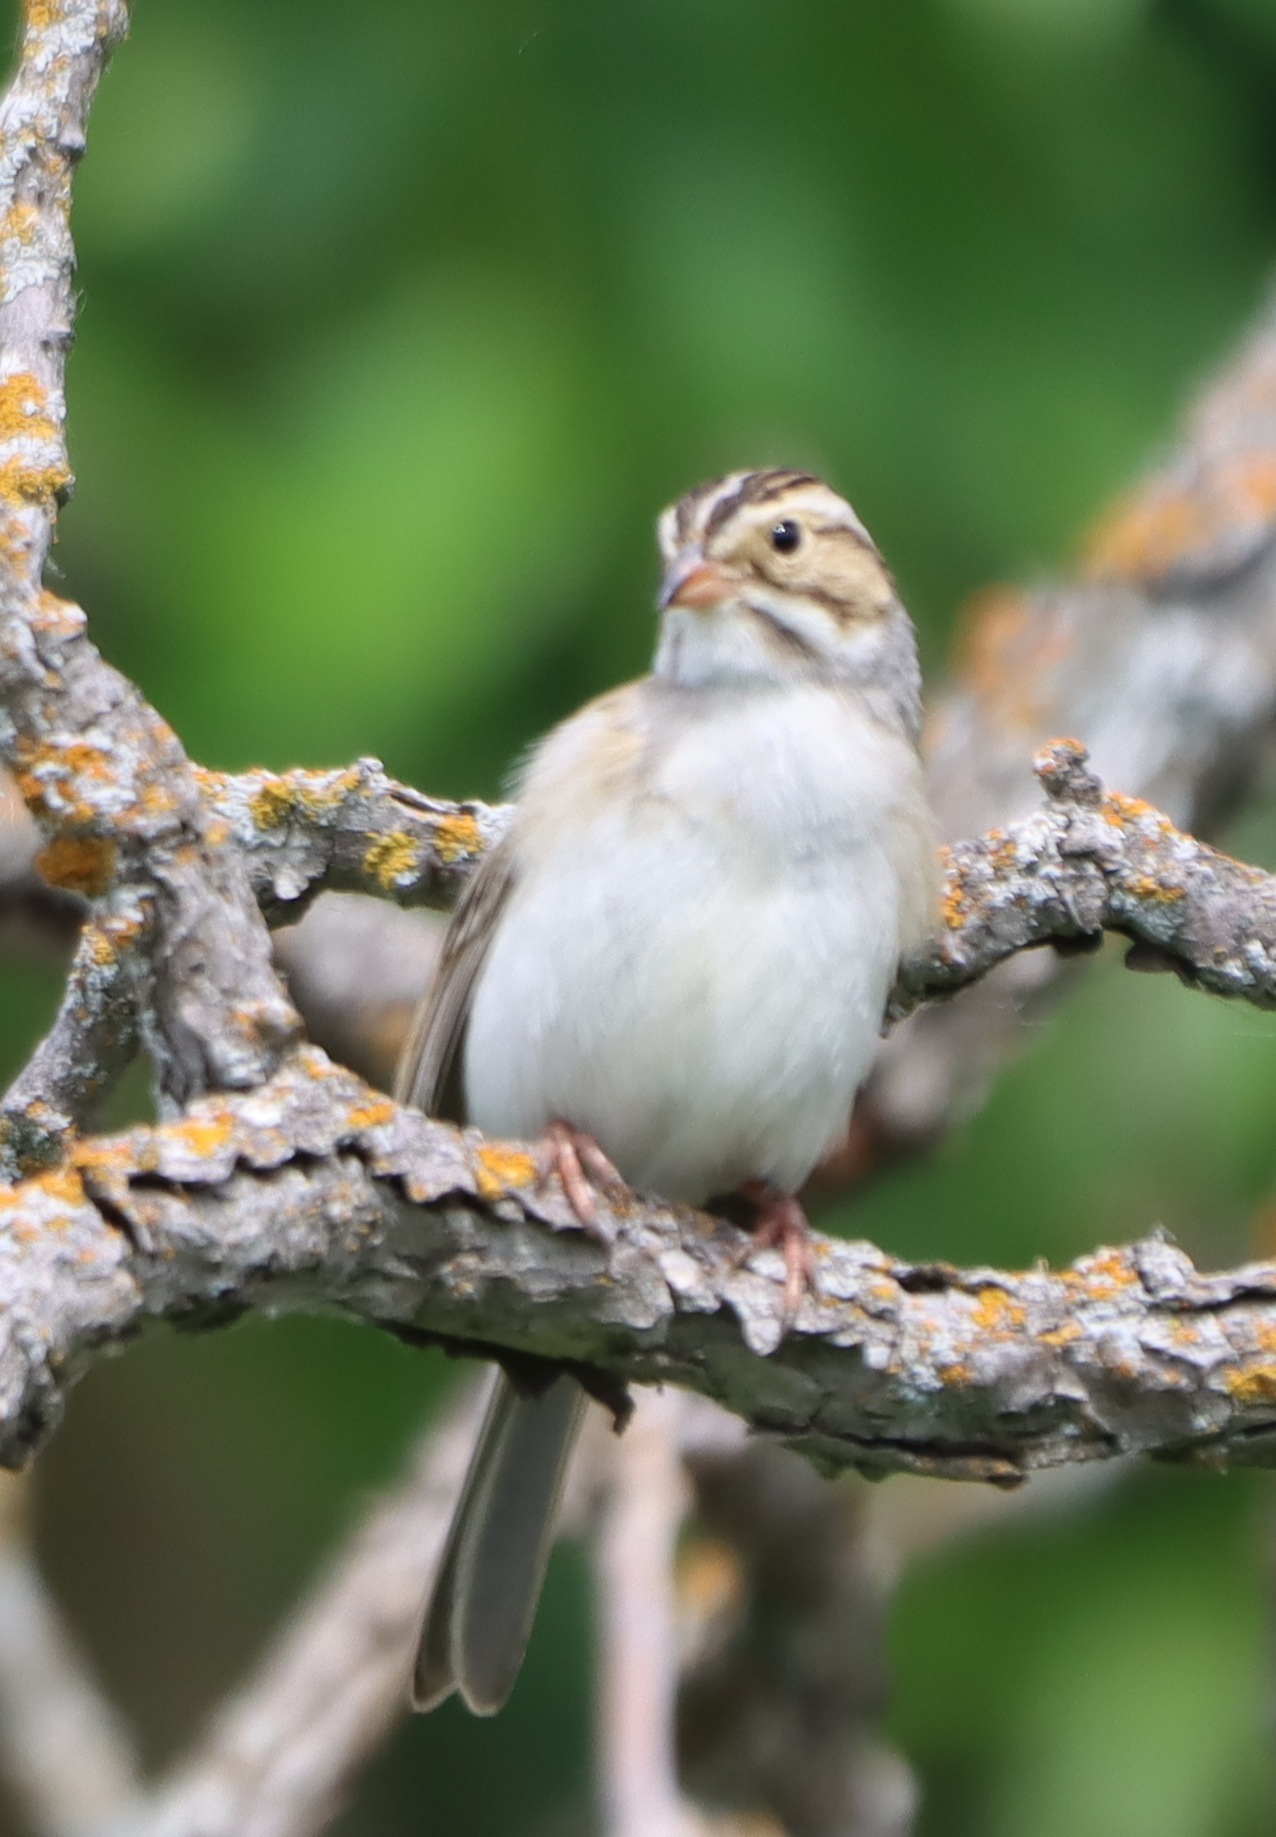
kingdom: Animalia
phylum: Chordata
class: Aves
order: Passeriformes
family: Passerellidae
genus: Spizella
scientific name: Spizella pallida
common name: Clay-colored sparrow
